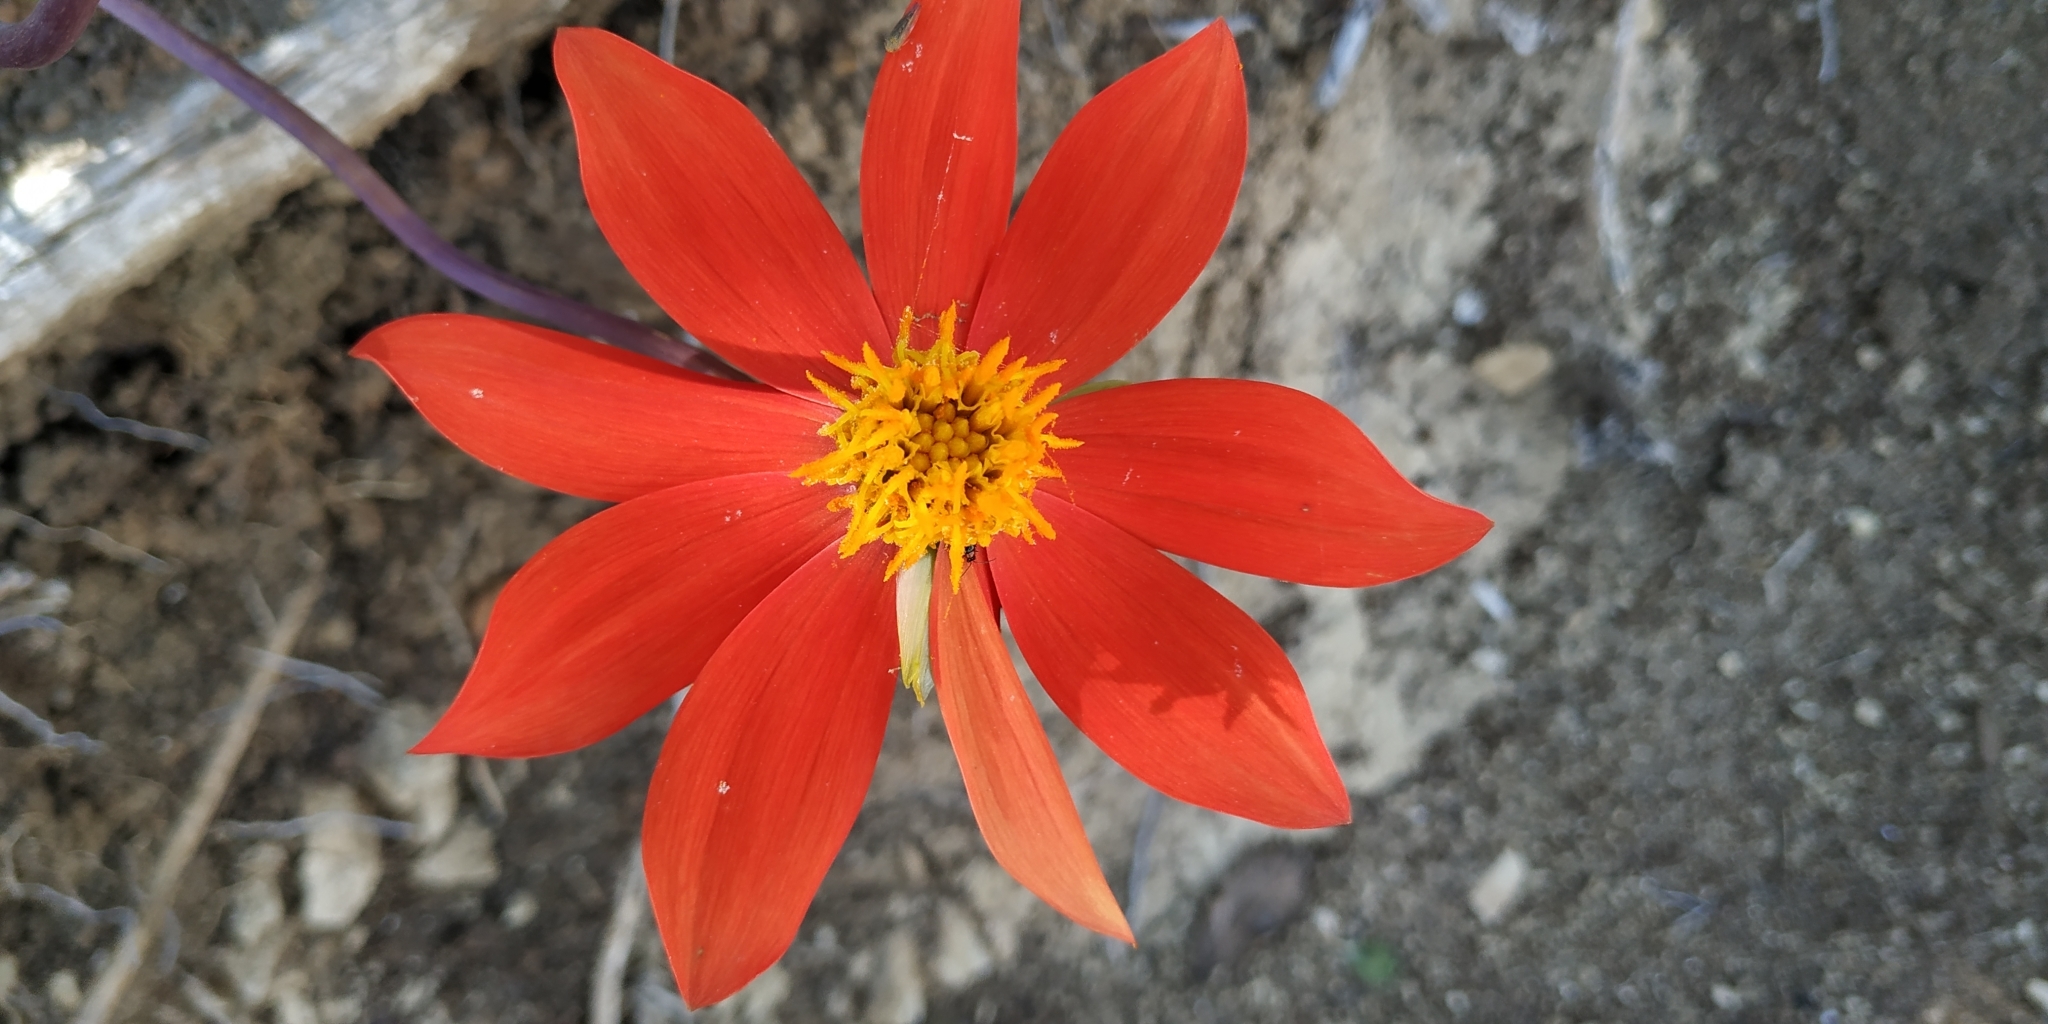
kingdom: Plantae
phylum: Tracheophyta
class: Magnoliopsida
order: Asterales
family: Asteraceae
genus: Dahlia
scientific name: Dahlia coccinea
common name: Red dahlia
